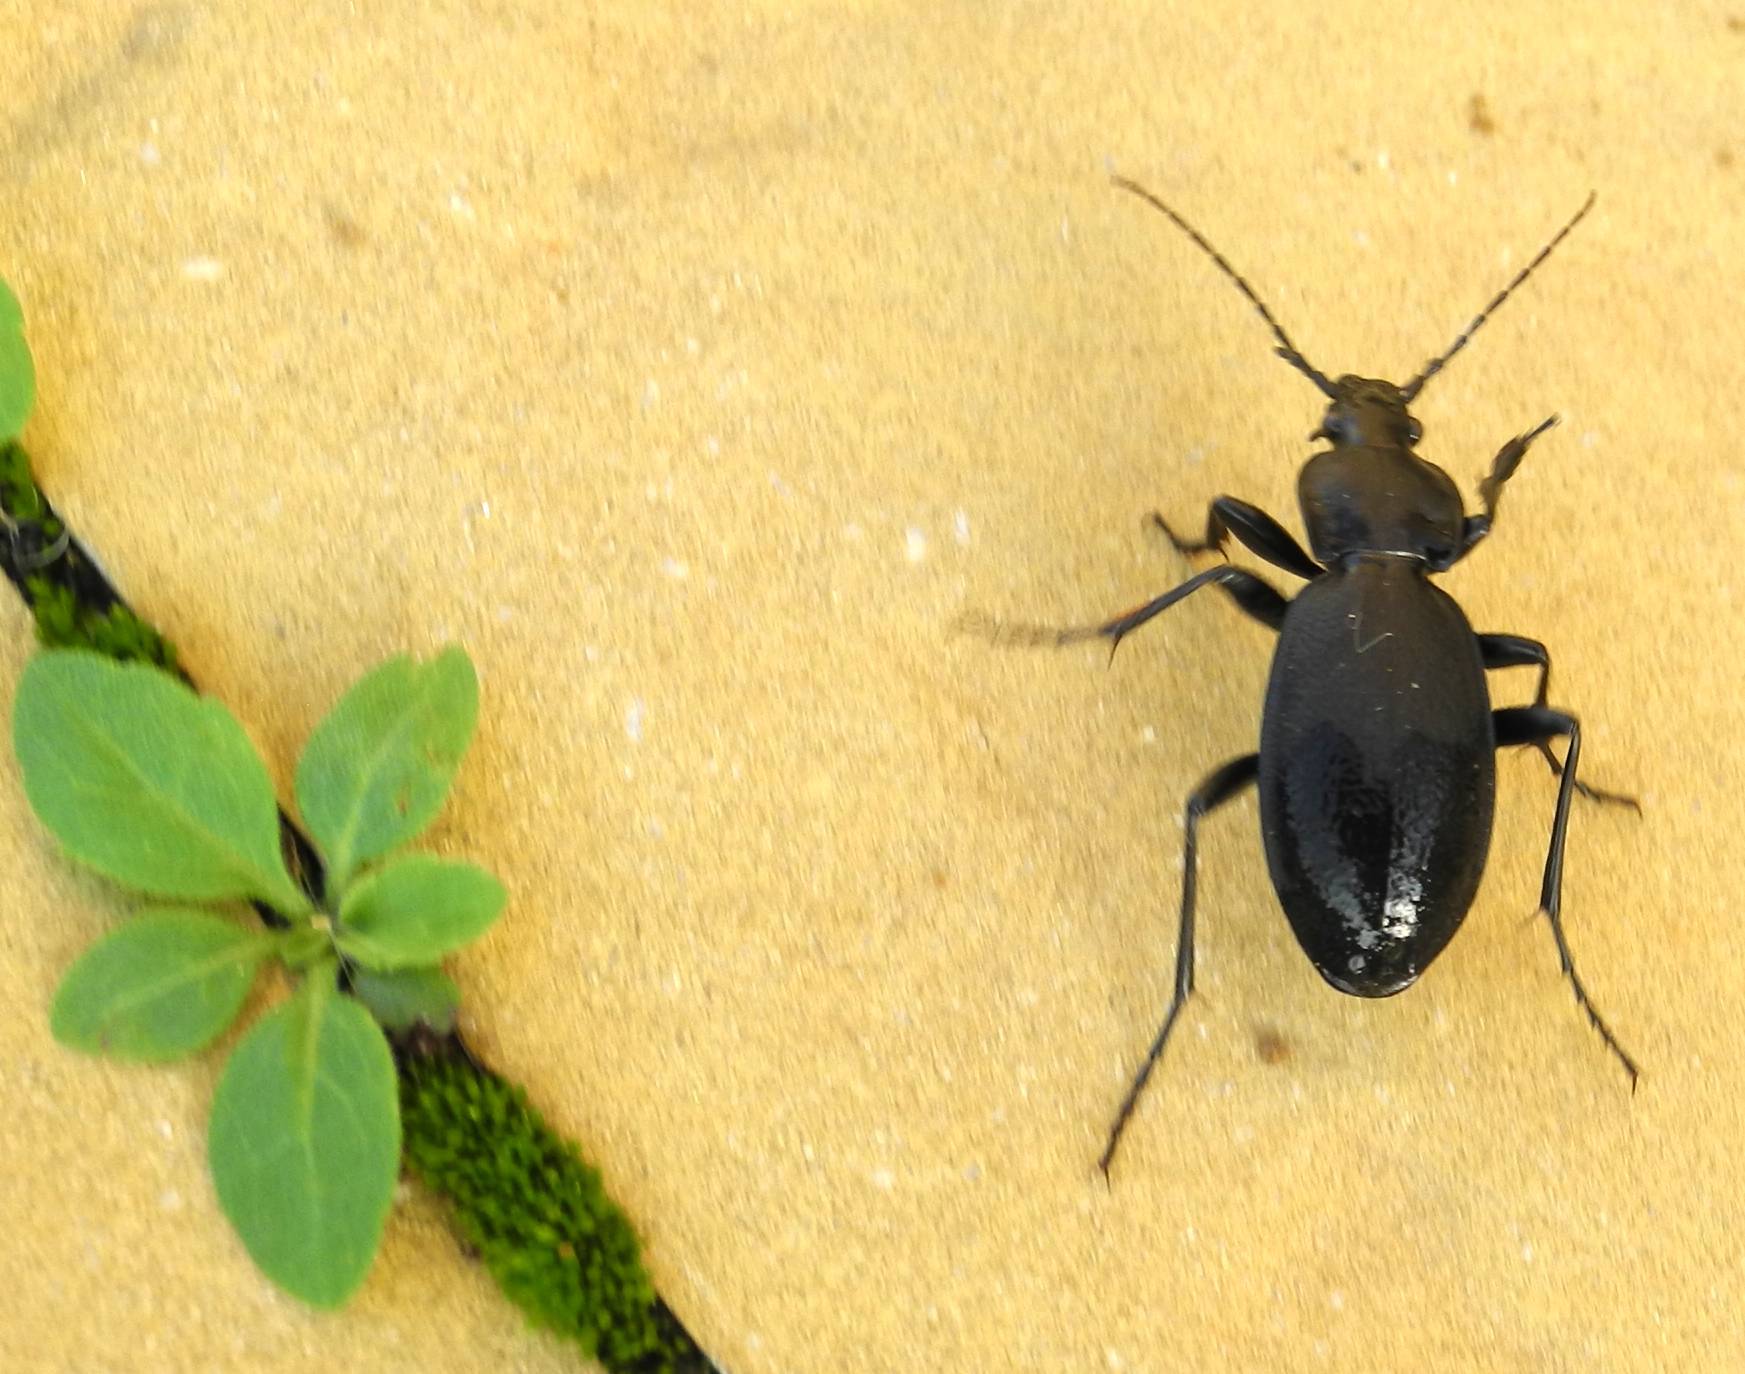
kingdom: Animalia
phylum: Arthropoda
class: Insecta
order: Coleoptera
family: Carabidae
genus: Carabus
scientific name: Carabus coriaceus
